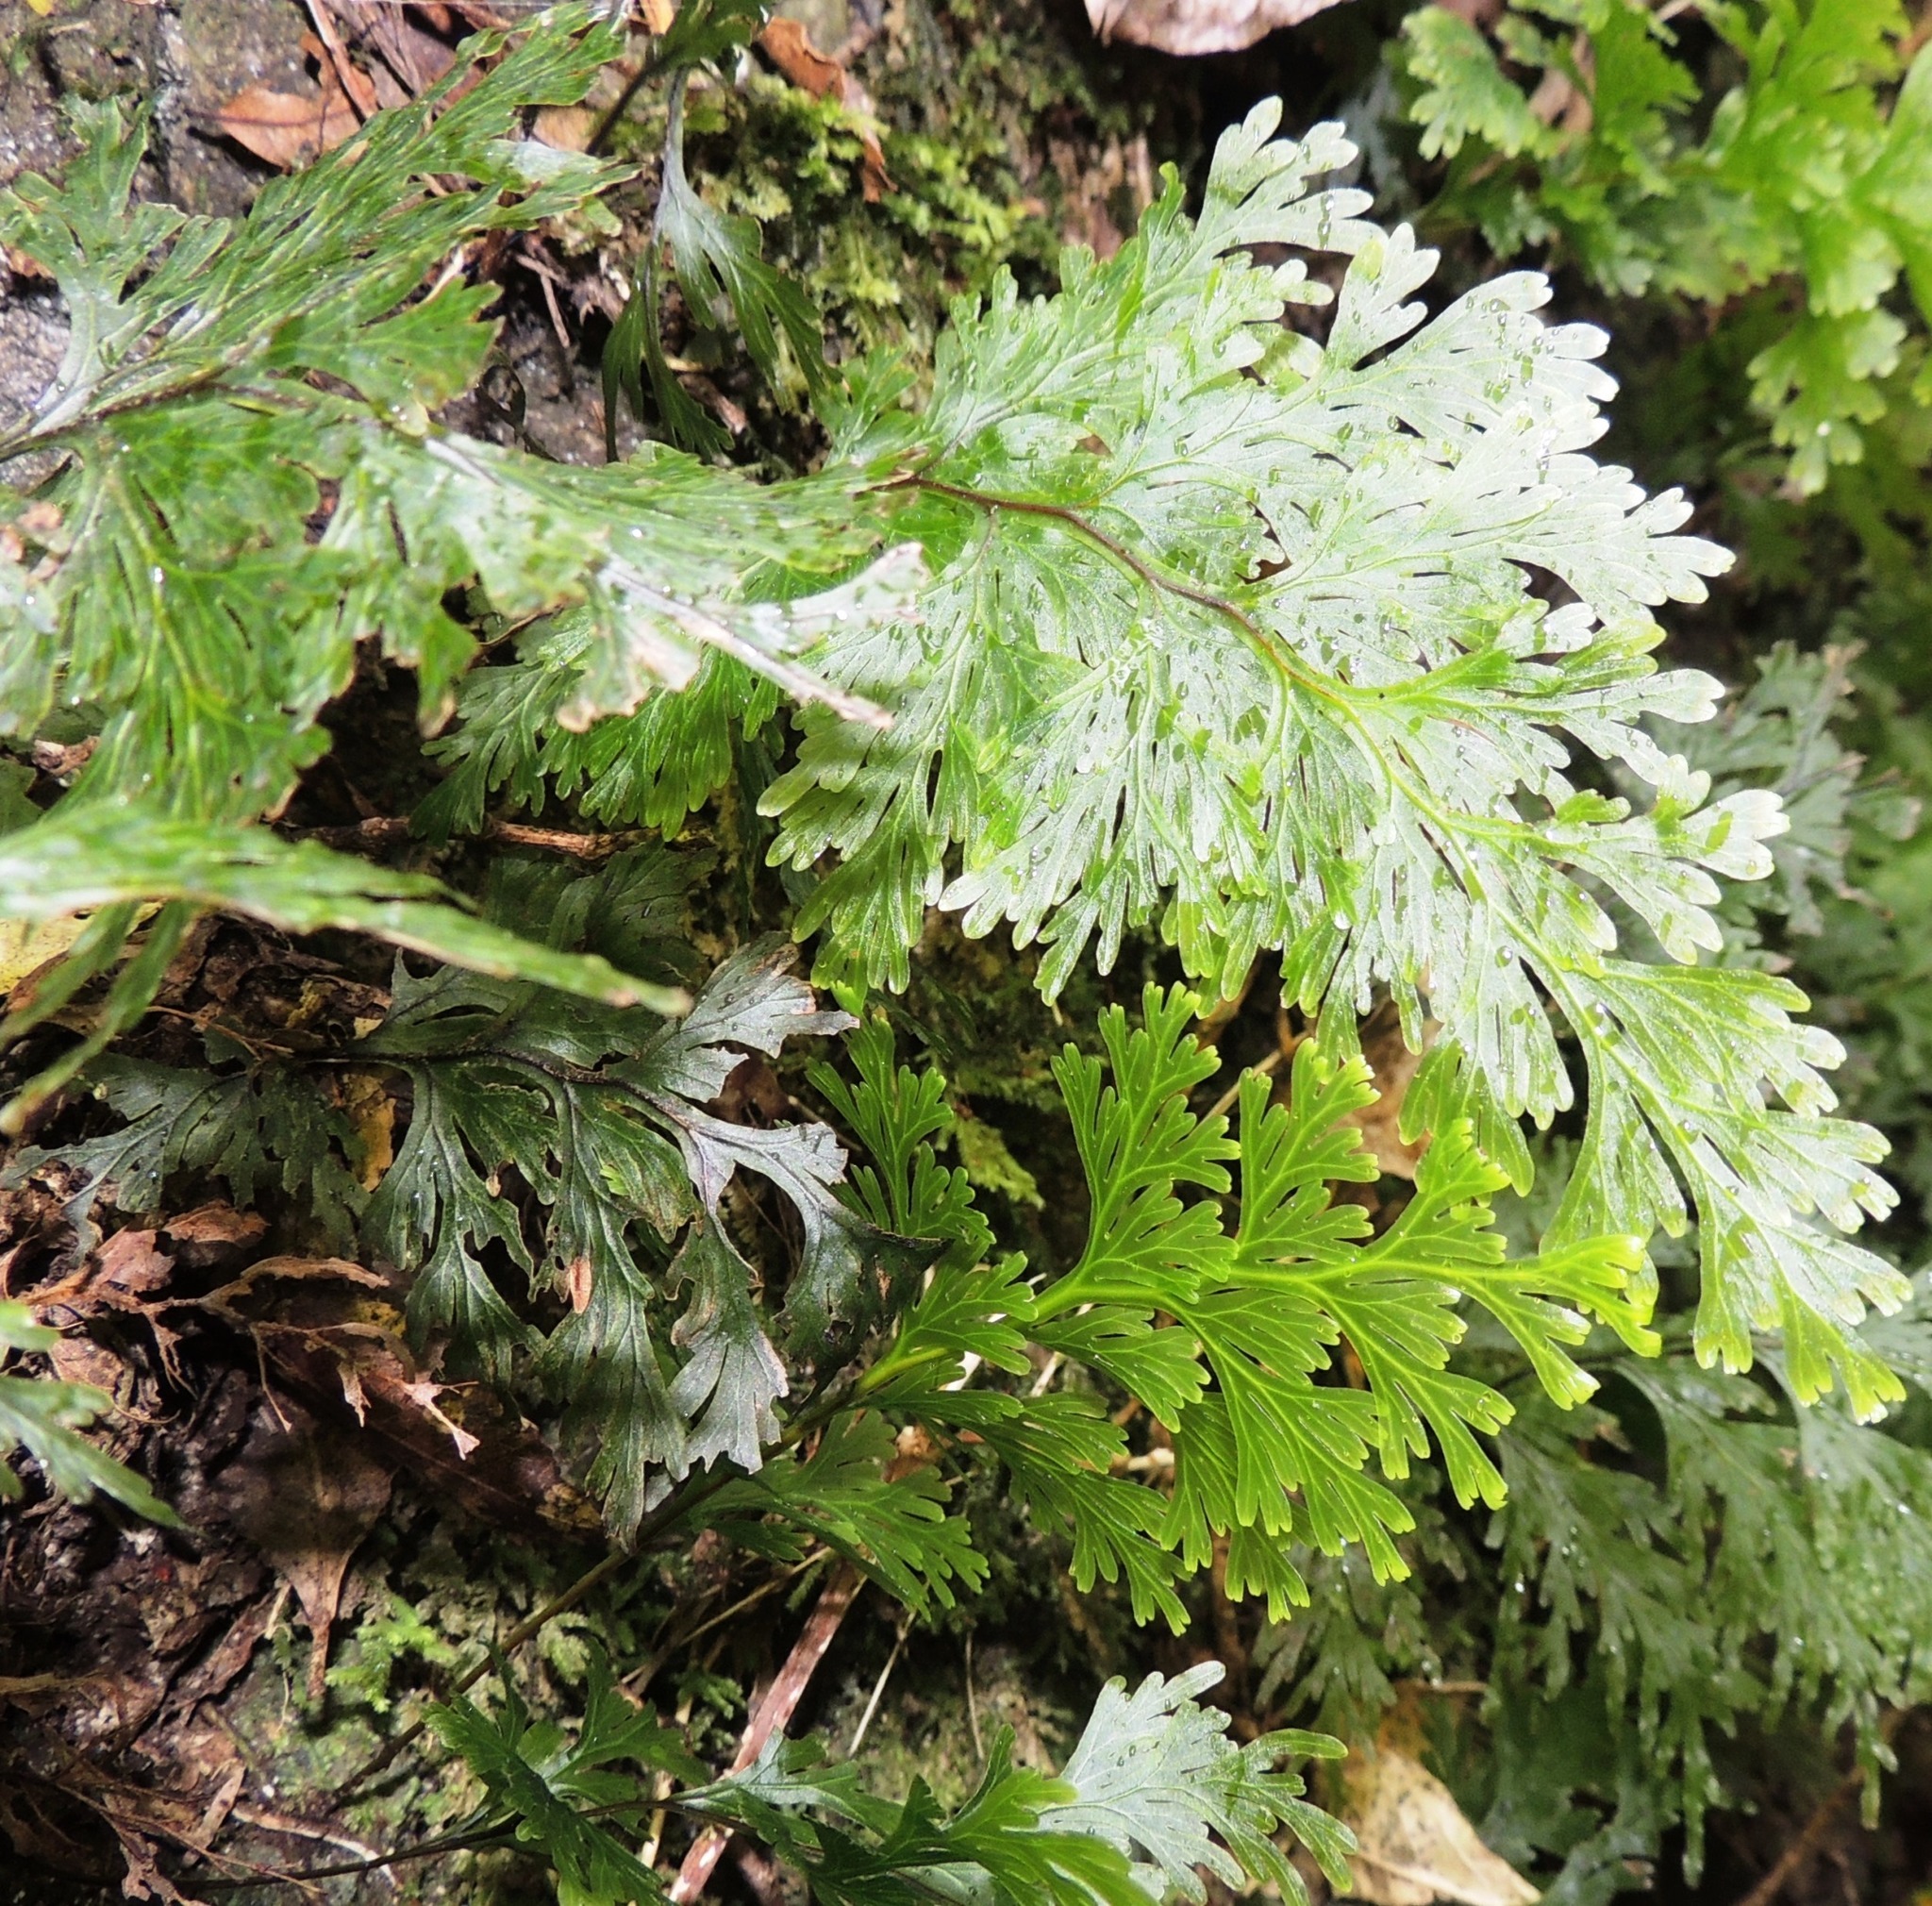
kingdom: Plantae
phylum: Tracheophyta
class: Polypodiopsida
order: Hymenophyllales
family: Hymenophyllaceae
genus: Hymenophyllum
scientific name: Hymenophyllum dilatatum
